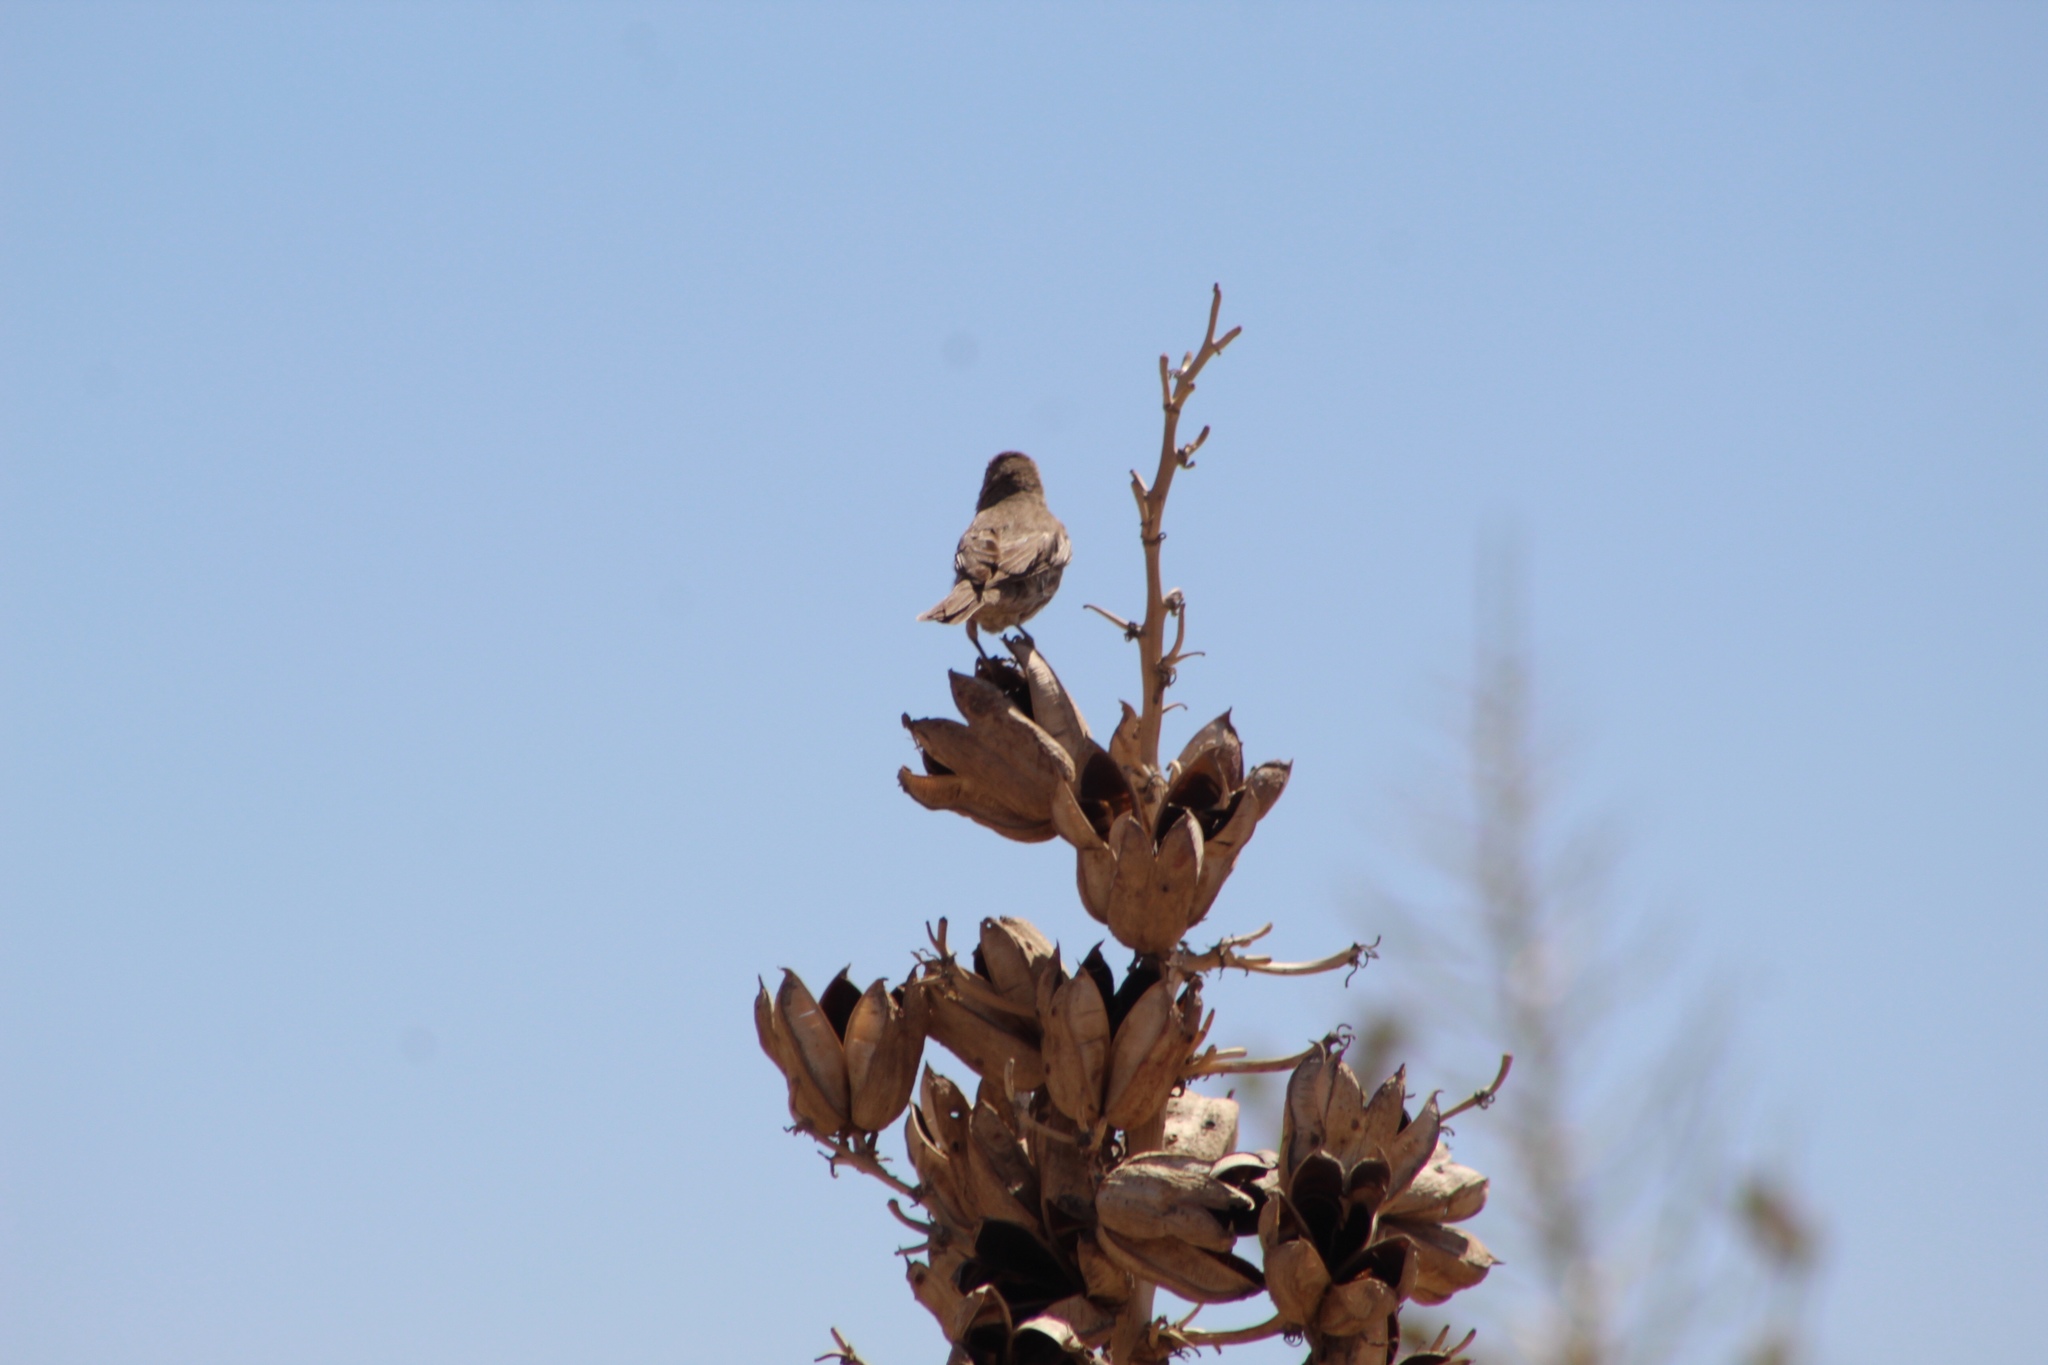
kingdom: Animalia
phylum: Chordata
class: Aves
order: Passeriformes
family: Fringillidae
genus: Haemorhous
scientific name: Haemorhous mexicanus
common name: House finch
